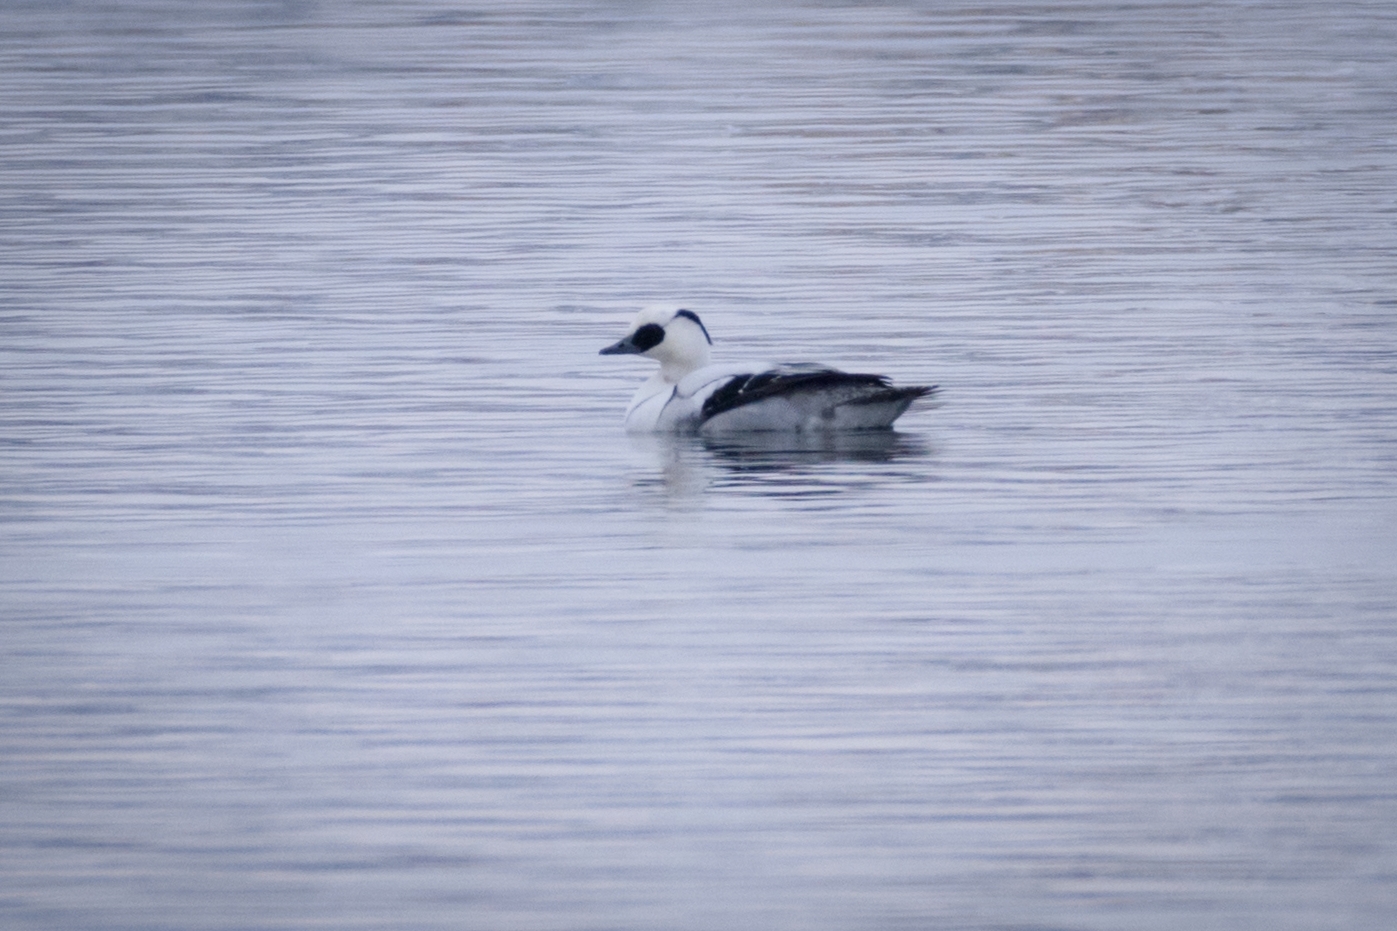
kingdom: Animalia
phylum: Chordata
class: Aves
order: Anseriformes
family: Anatidae
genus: Mergellus
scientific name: Mergellus albellus
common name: Smew
